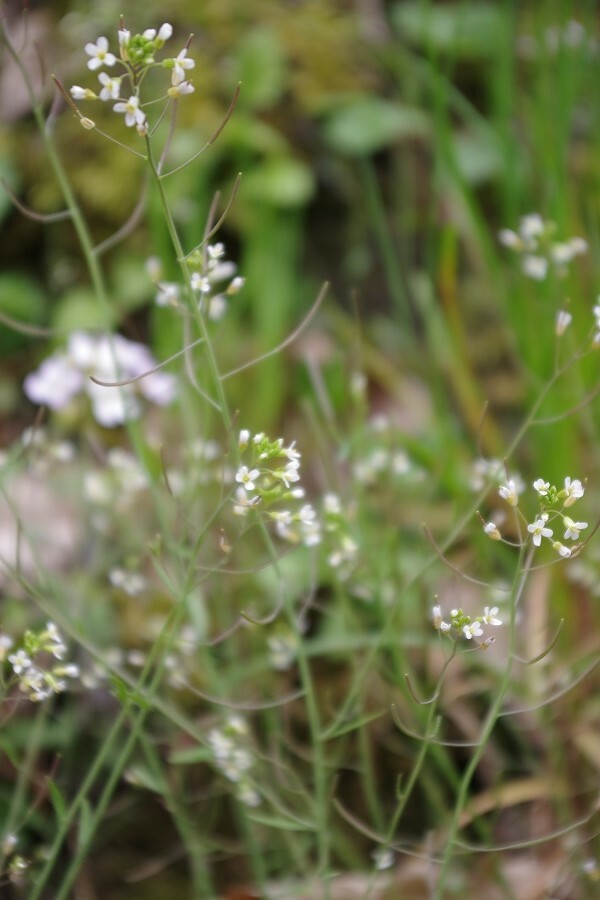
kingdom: Plantae
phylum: Tracheophyta
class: Magnoliopsida
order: Brassicales
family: Brassicaceae
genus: Arabidopsis
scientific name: Arabidopsis thaliana
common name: Thale cress
